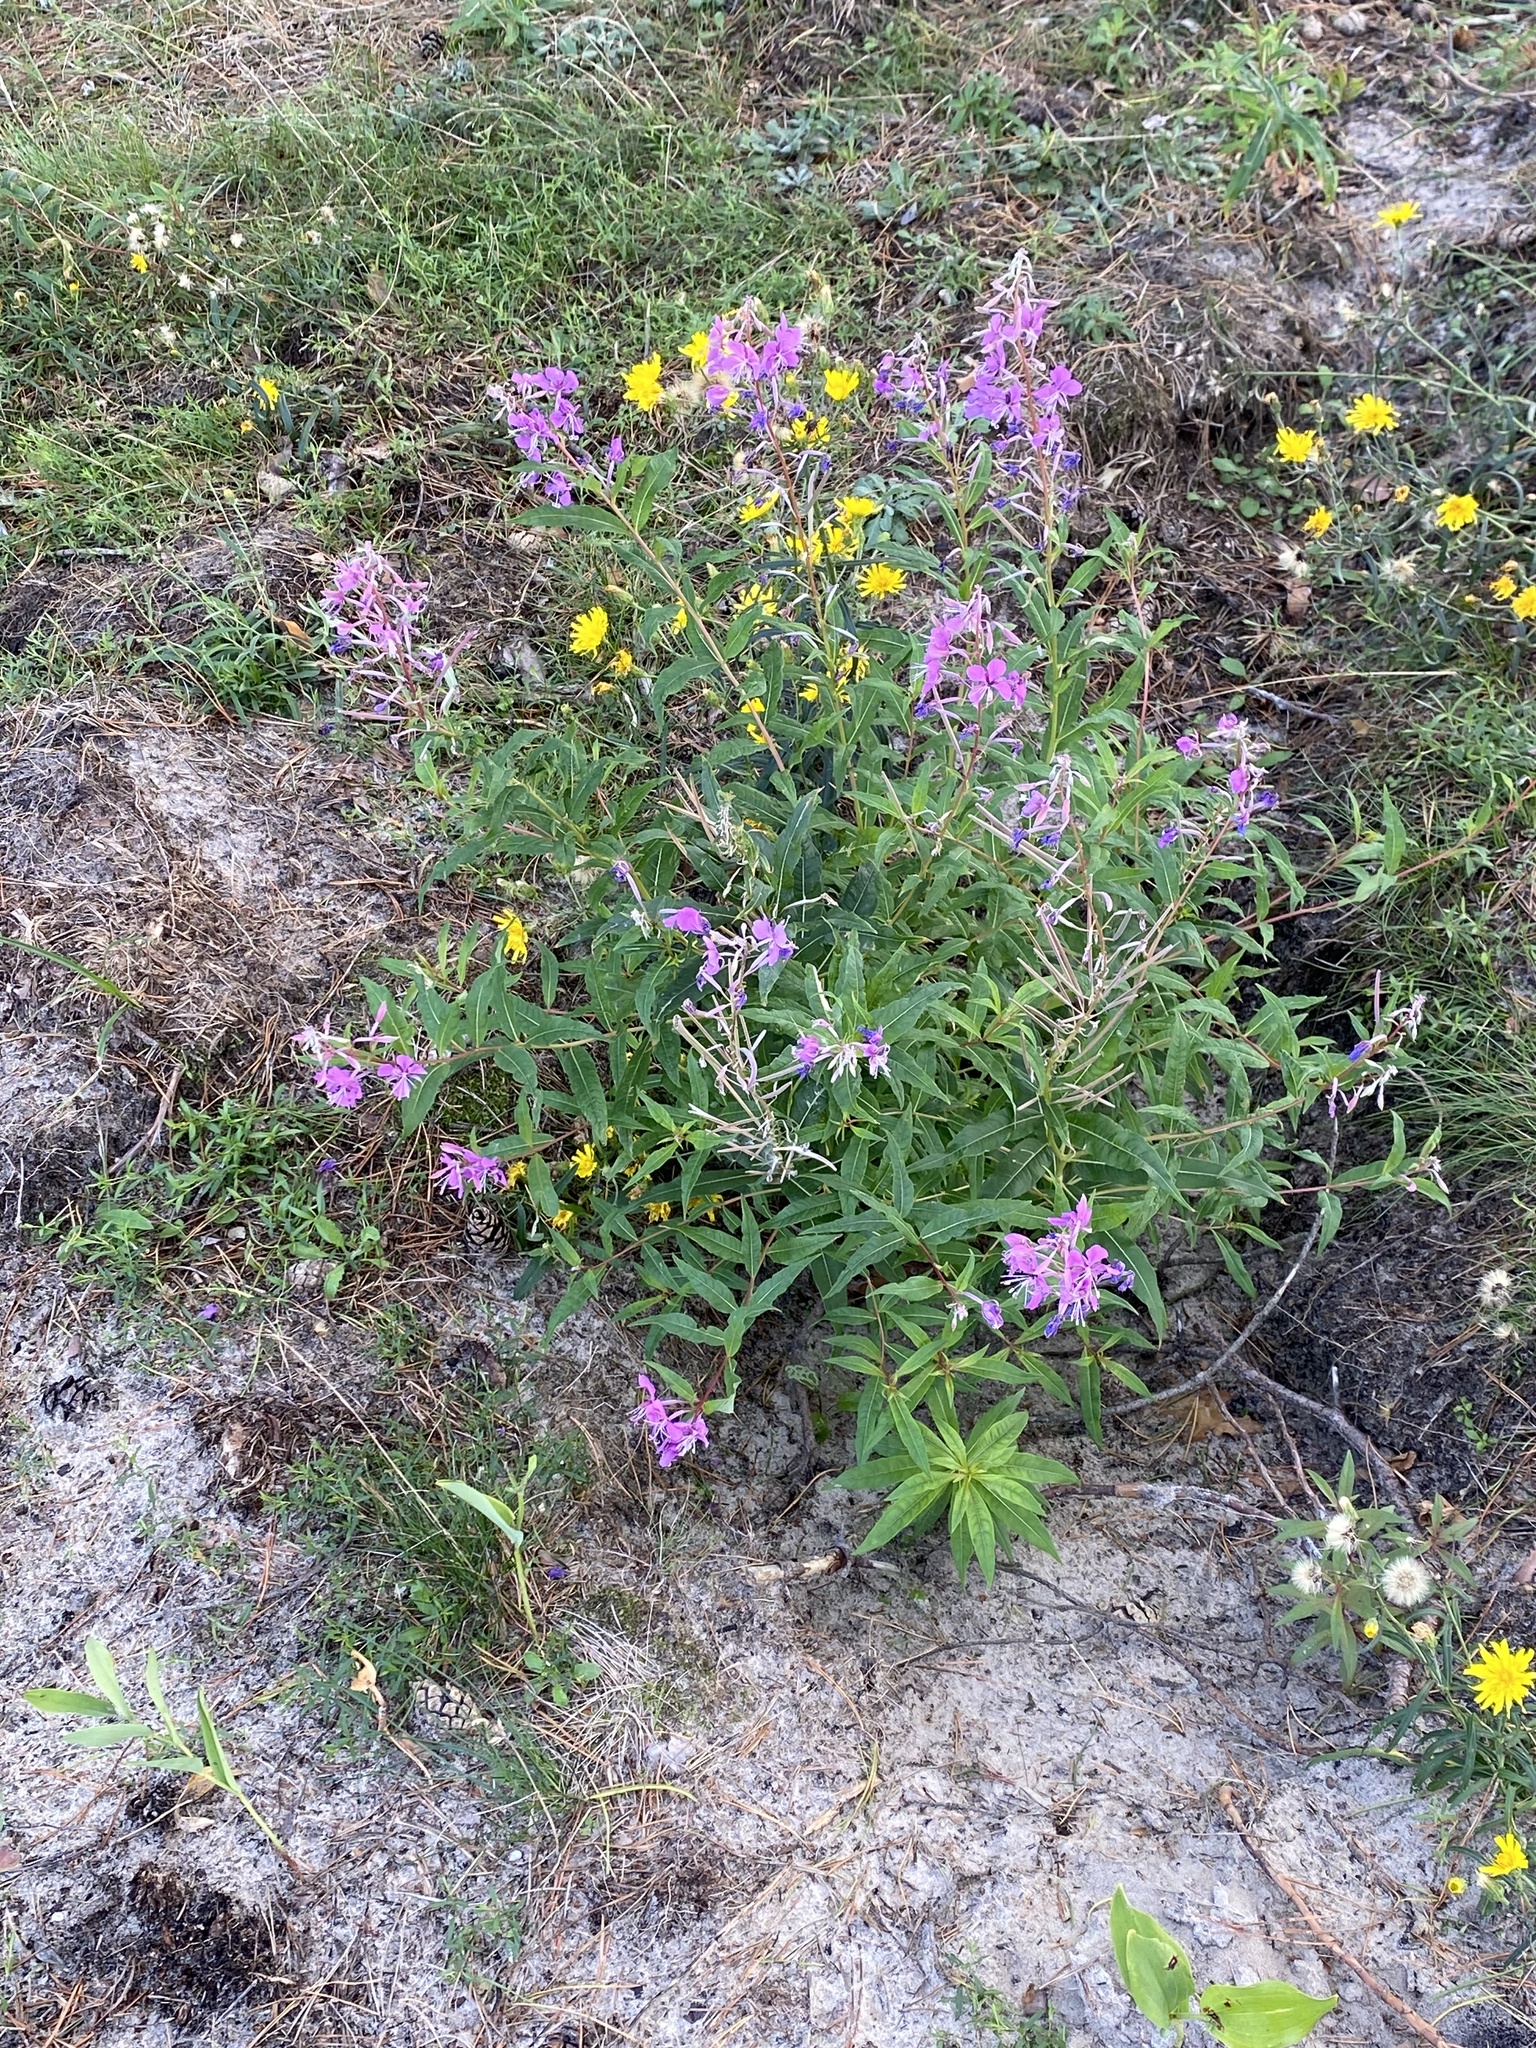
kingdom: Plantae
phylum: Tracheophyta
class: Magnoliopsida
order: Myrtales
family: Onagraceae
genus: Chamaenerion
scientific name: Chamaenerion angustifolium
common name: Fireweed
